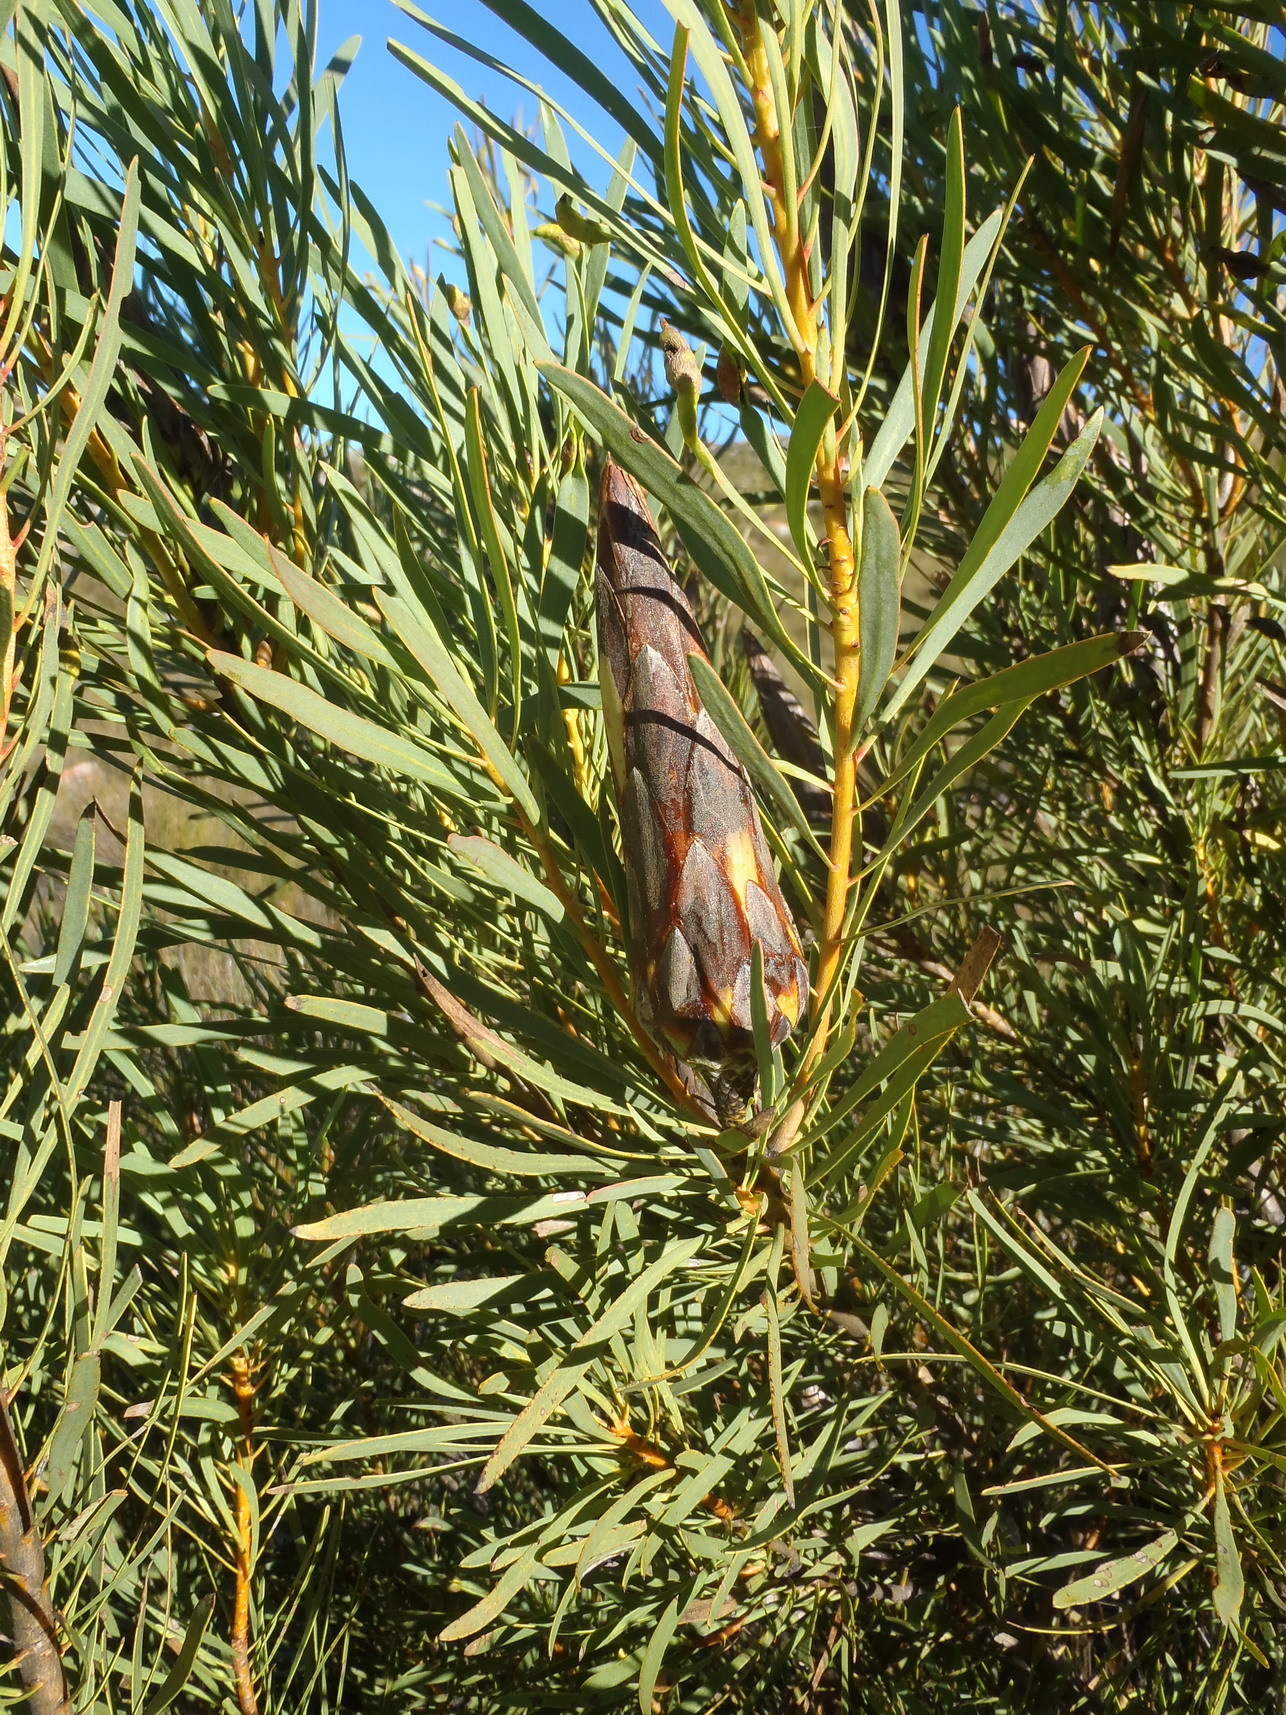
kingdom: Plantae
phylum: Tracheophyta
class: Magnoliopsida
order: Proteales
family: Proteaceae
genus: Protea
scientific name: Protea repens
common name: Sugarbush
